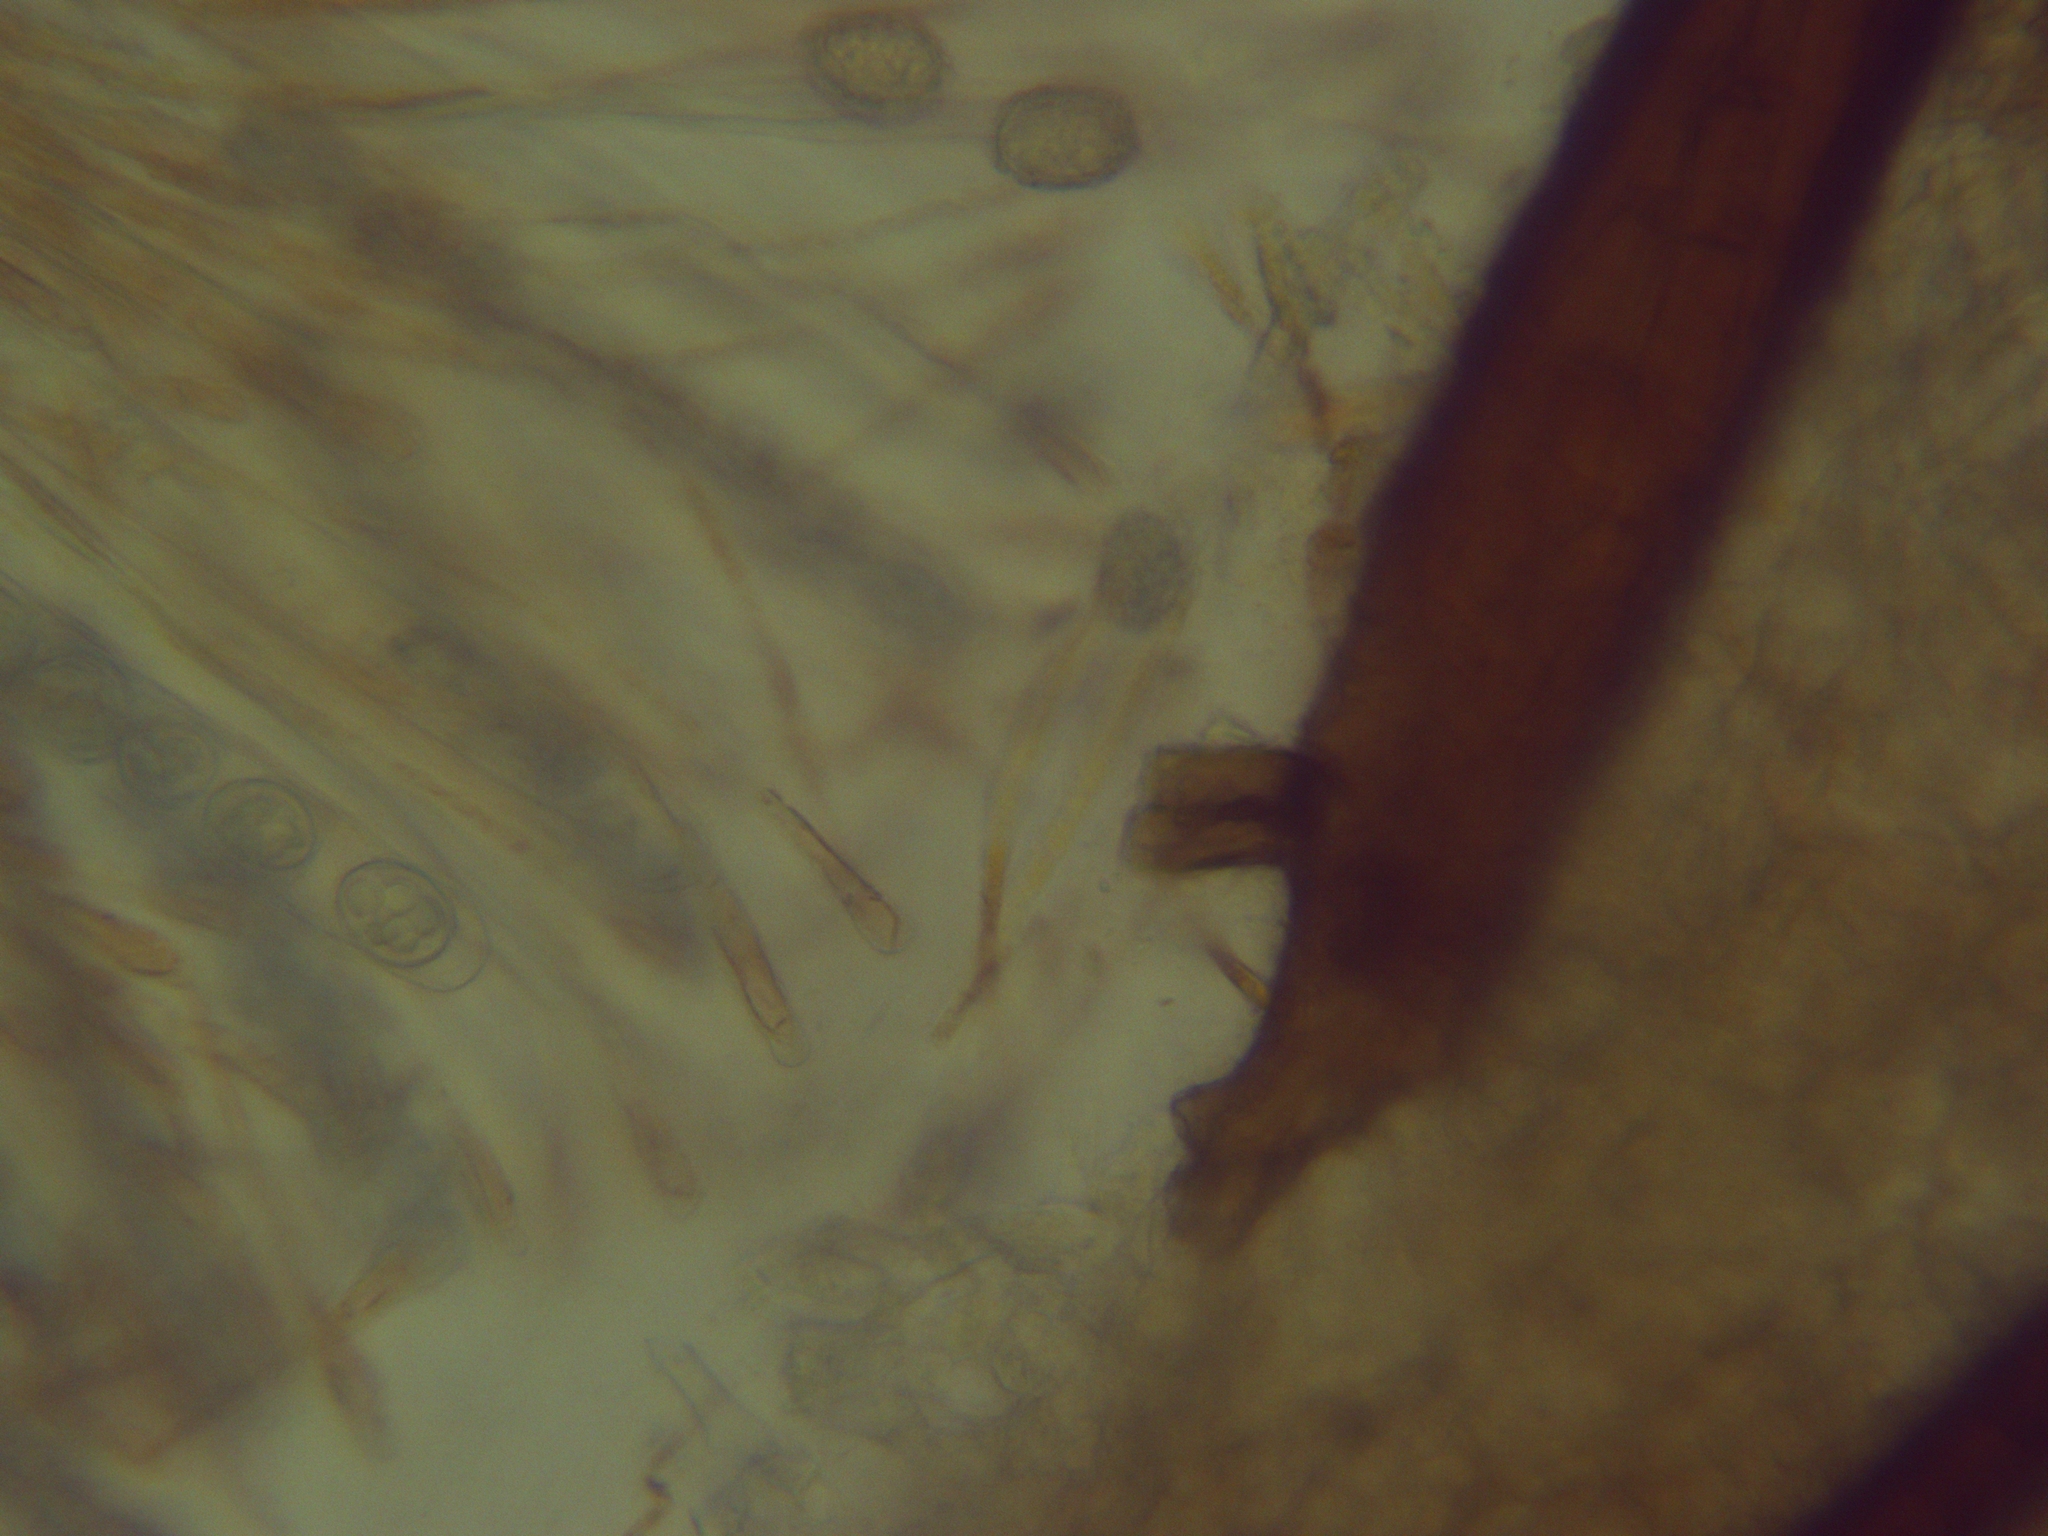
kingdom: Fungi
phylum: Ascomycota
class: Pezizomycetes
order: Pezizales
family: Pyronemataceae
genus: Scutellinia
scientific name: Scutellinia pennsylvanica
